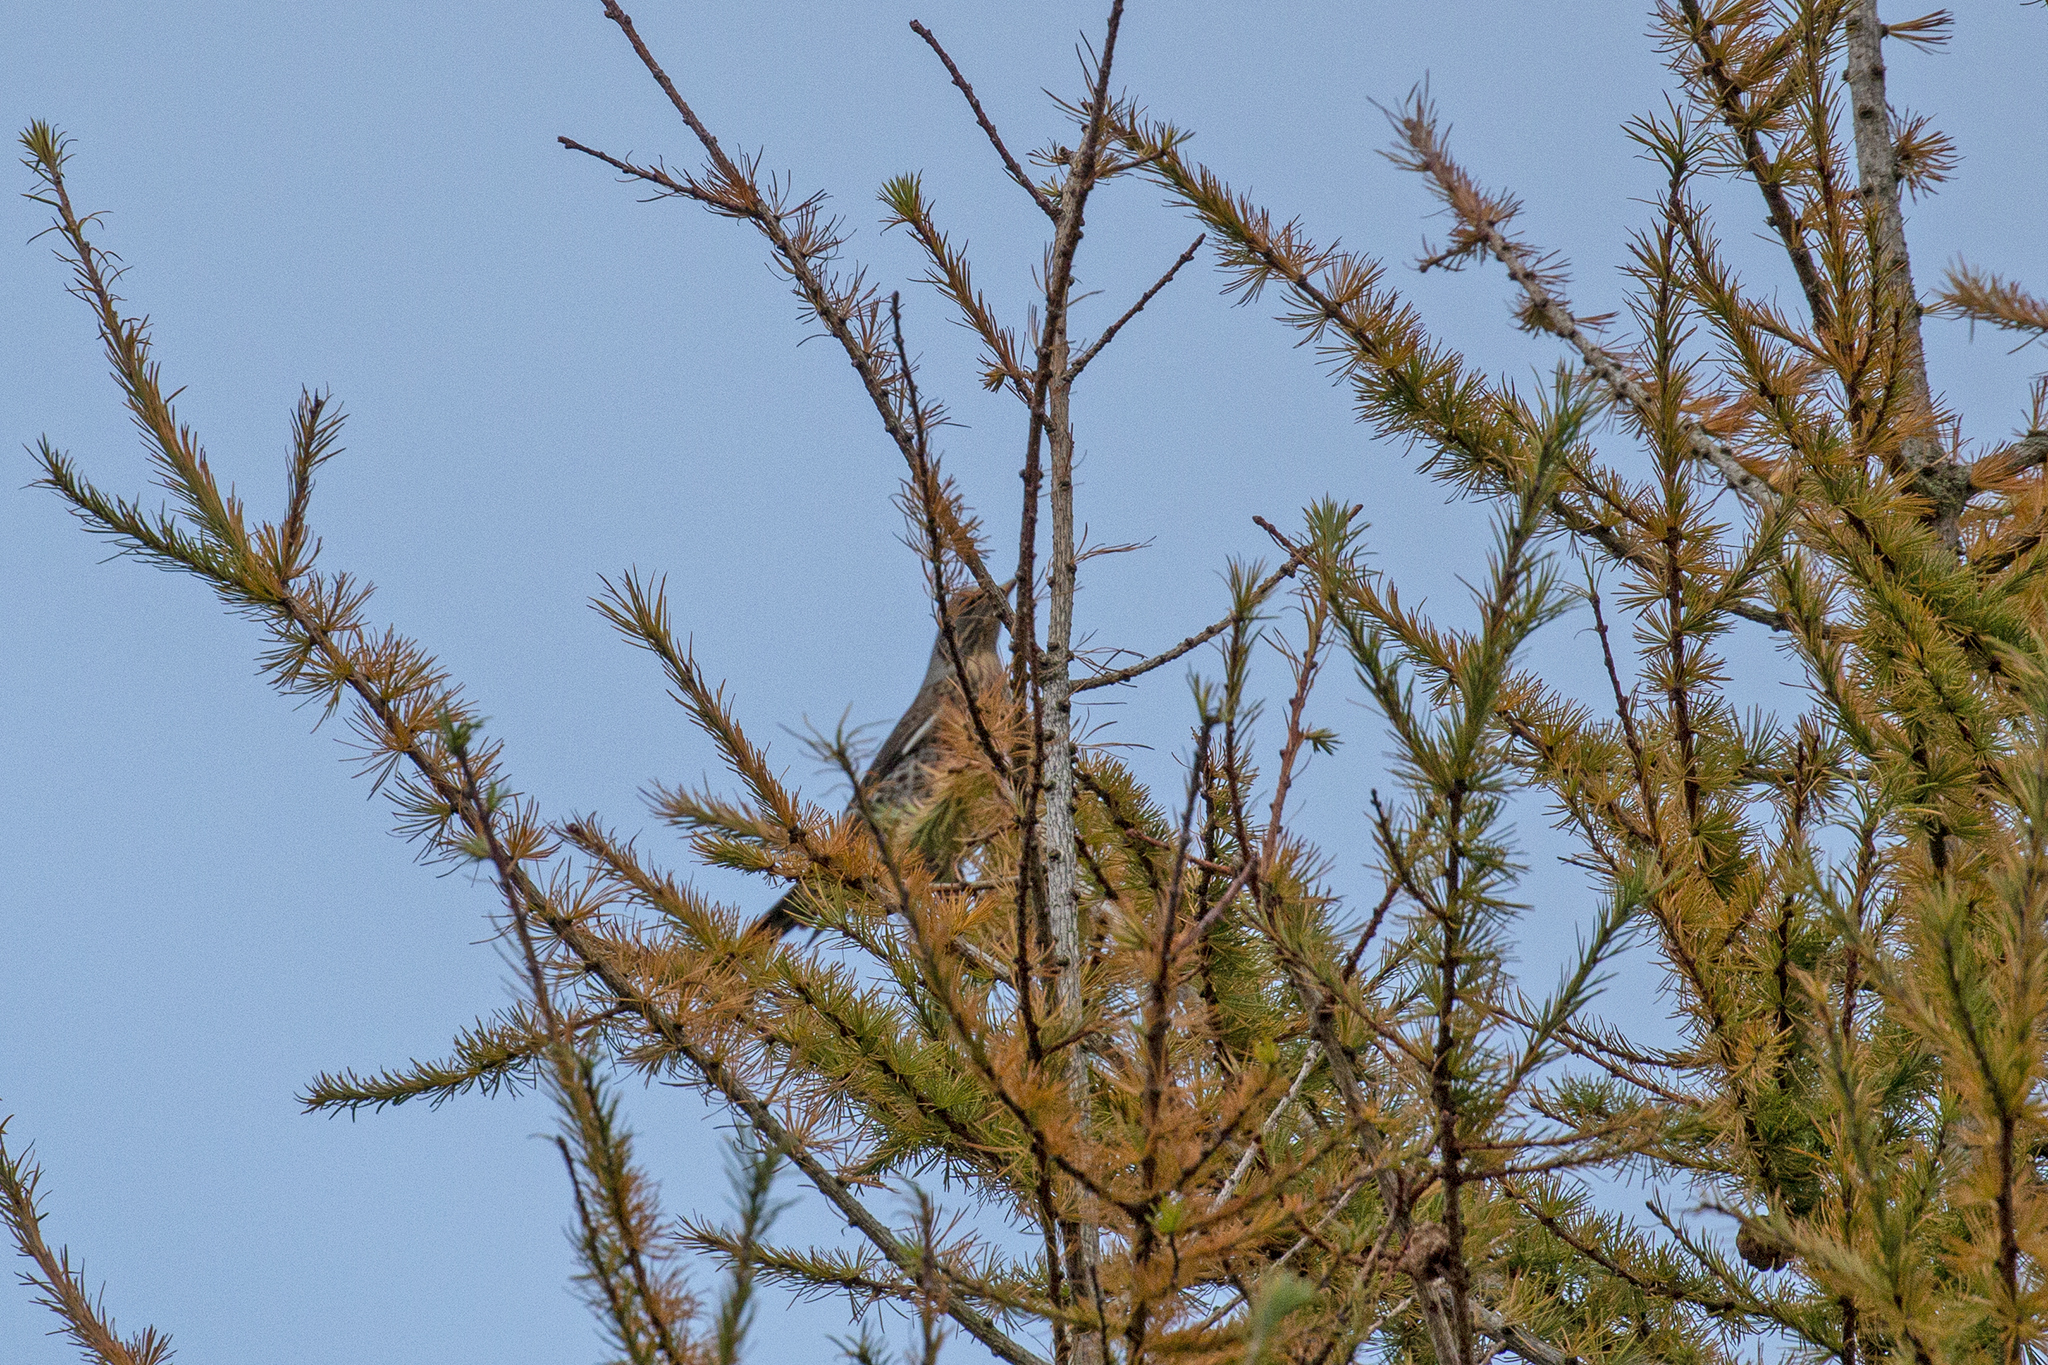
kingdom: Animalia
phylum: Chordata
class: Aves
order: Passeriformes
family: Turdidae
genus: Turdus
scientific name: Turdus pilaris
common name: Fieldfare
